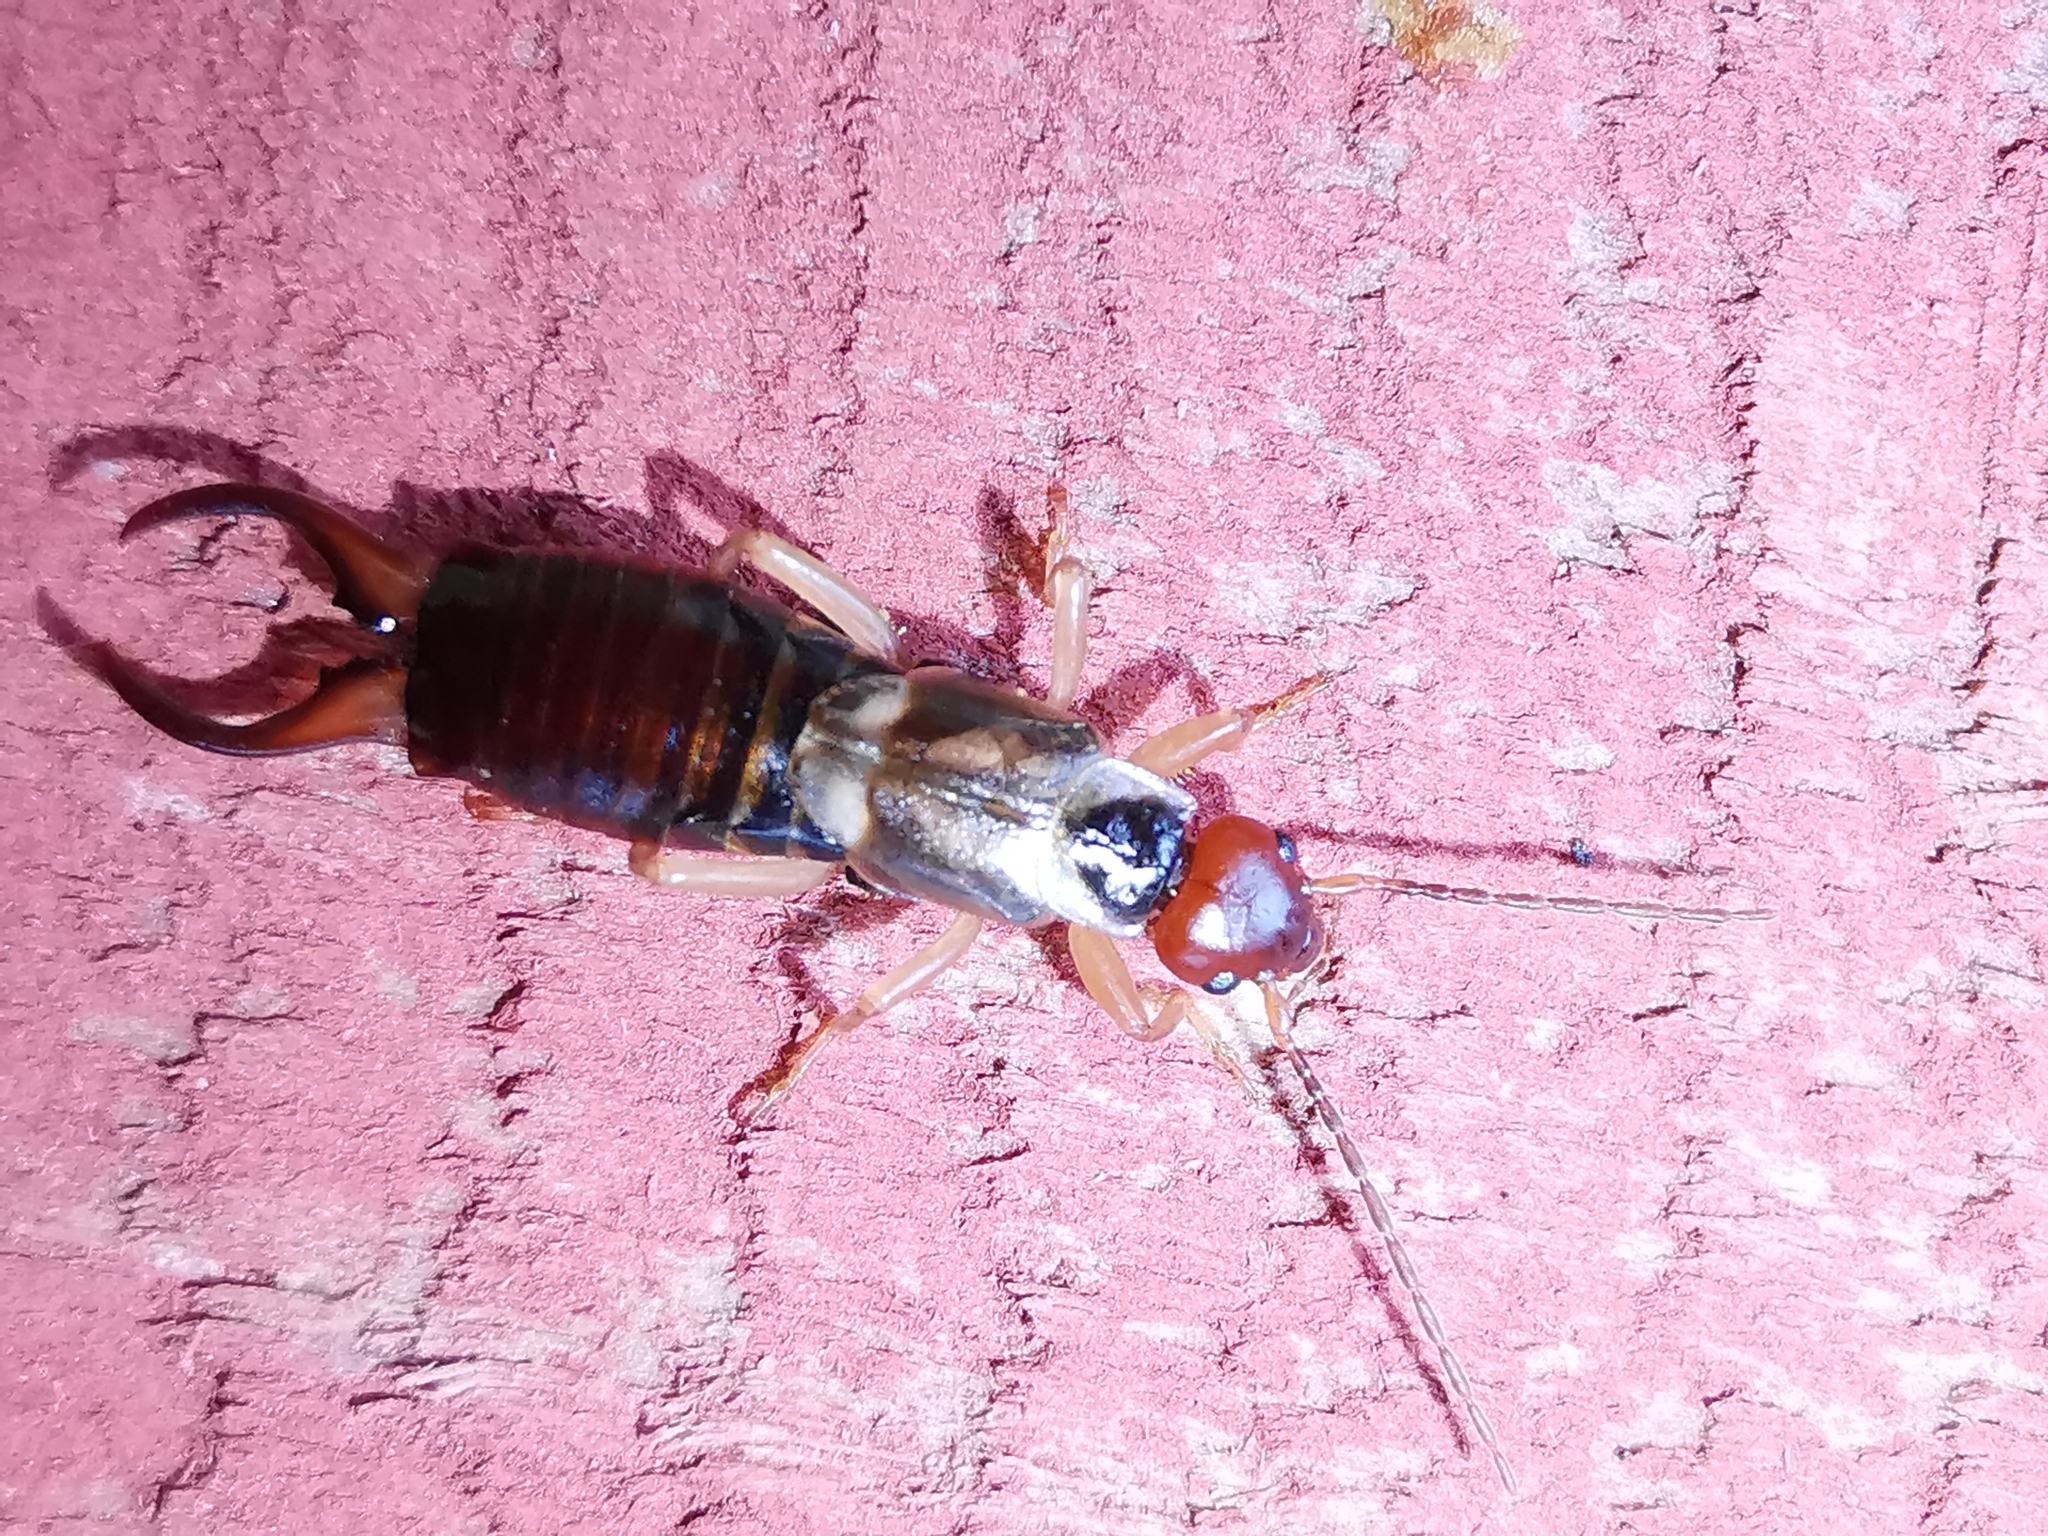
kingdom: Animalia
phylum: Arthropoda
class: Insecta
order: Dermaptera
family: Forficulidae
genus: Forficula
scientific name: Forficula
